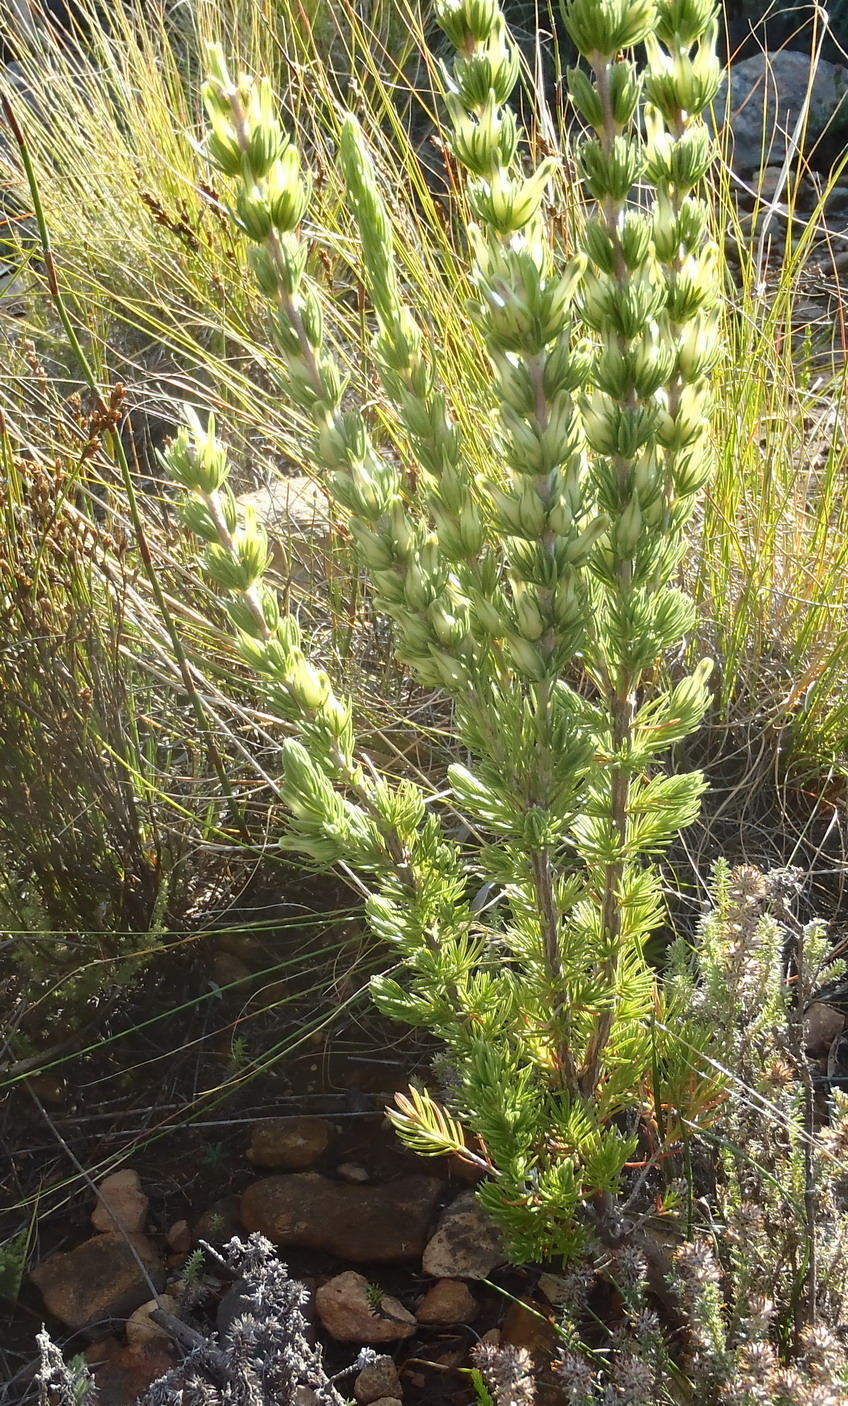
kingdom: Plantae
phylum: Tracheophyta
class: Magnoliopsida
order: Ericales
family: Ericaceae
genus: Erica
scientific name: Erica nabea
